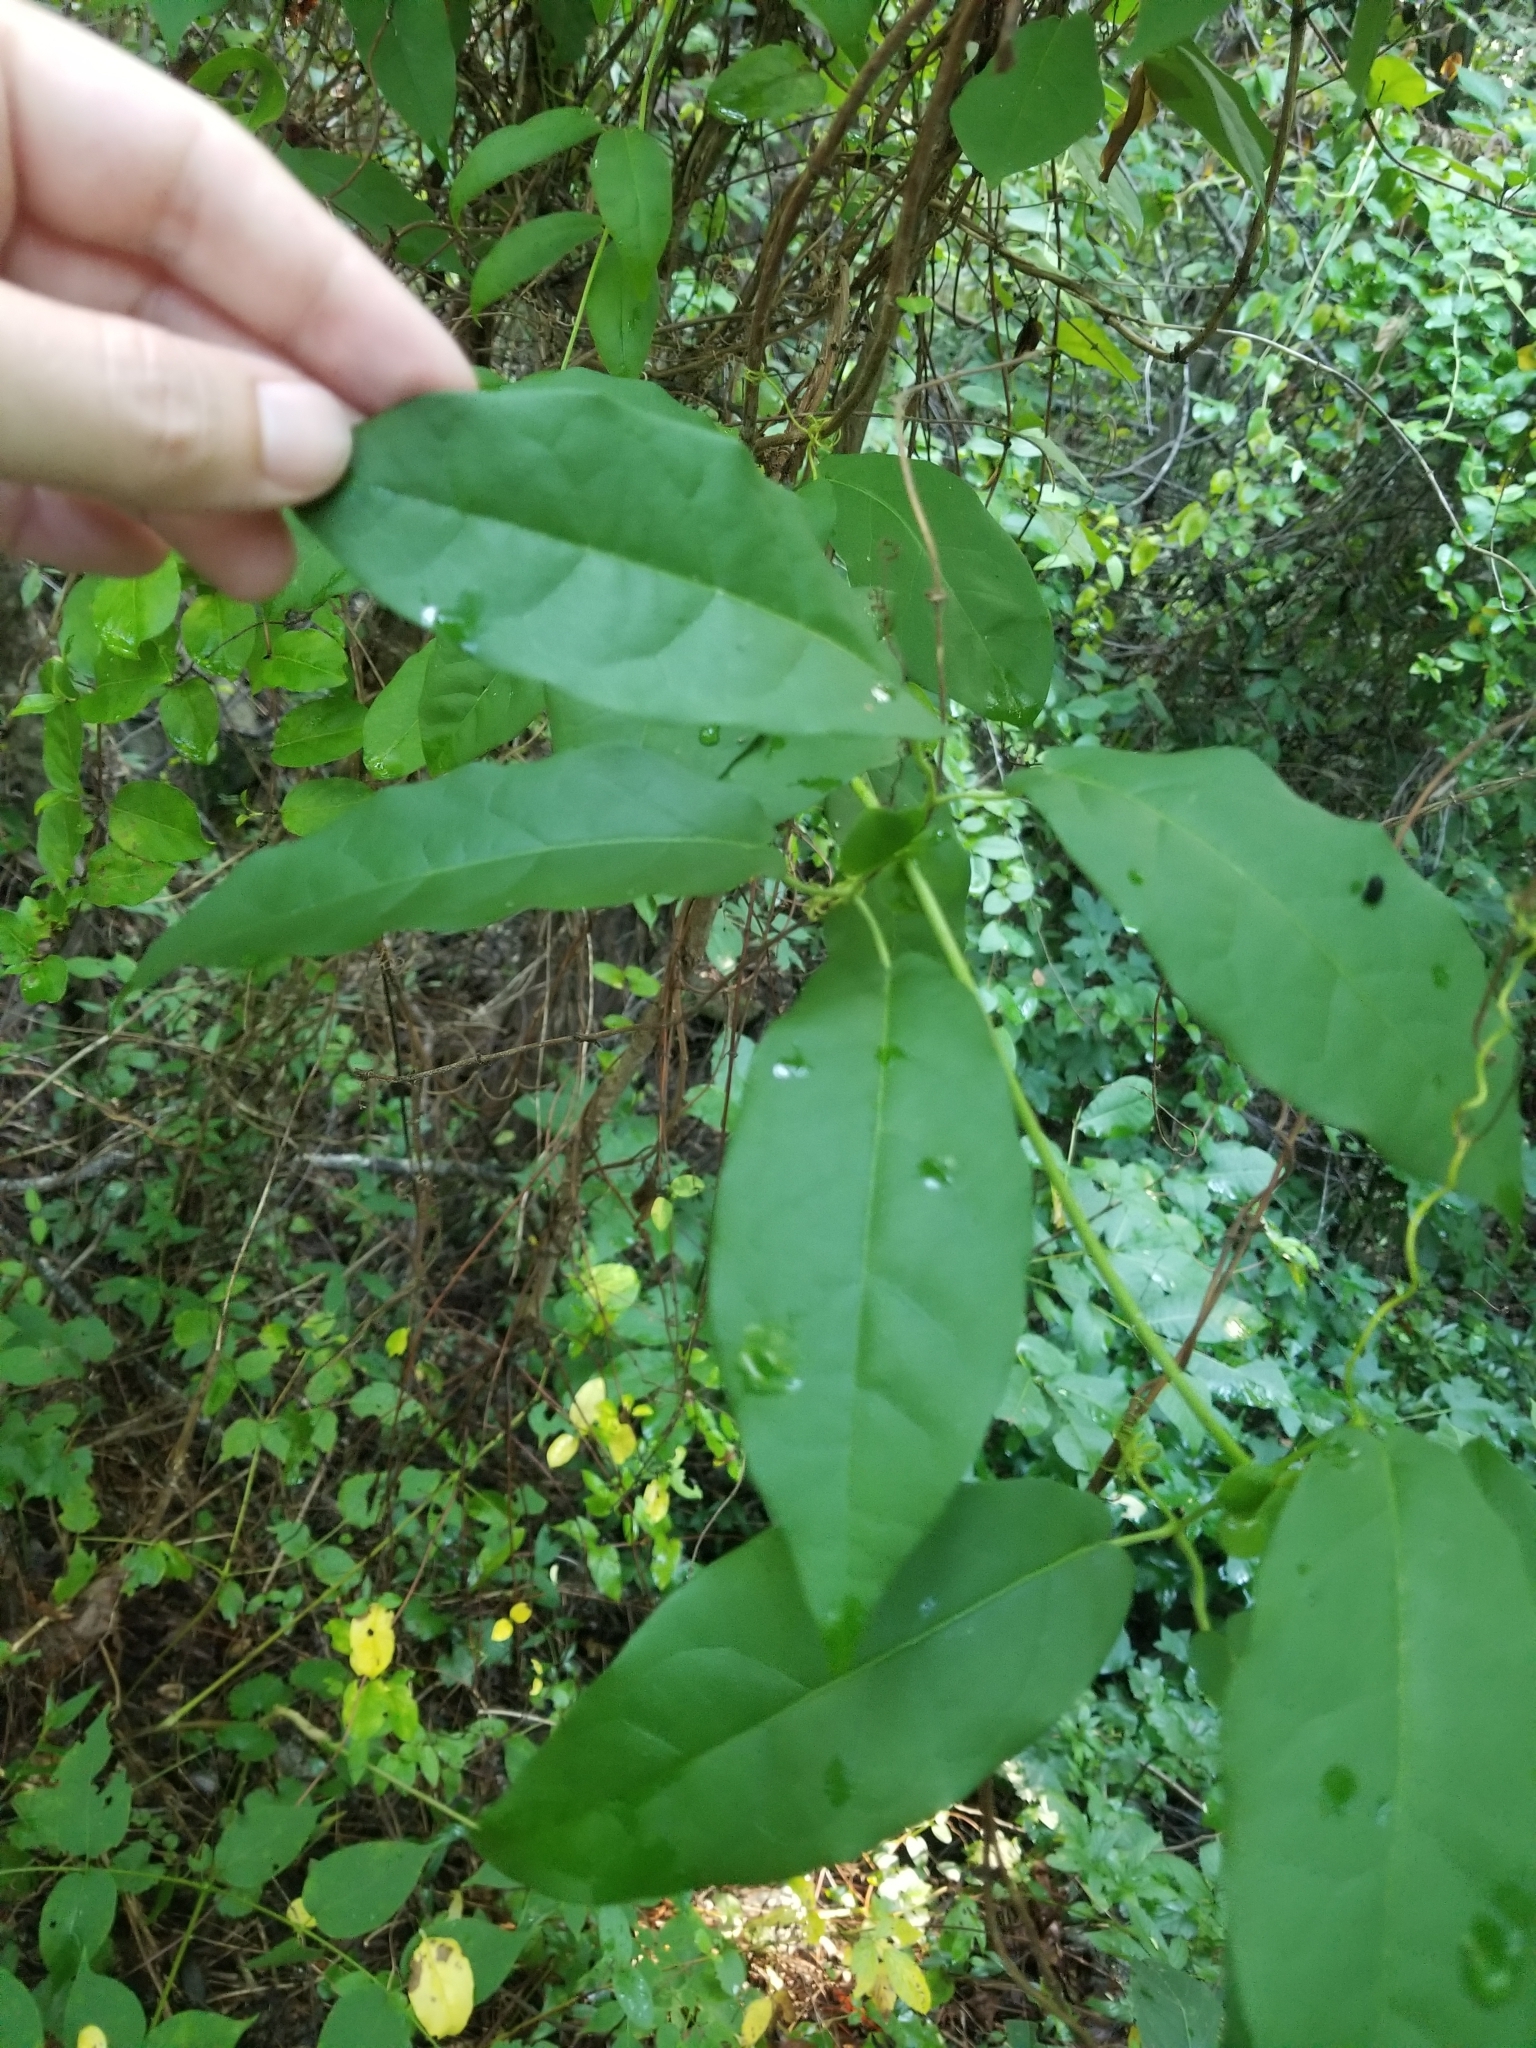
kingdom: Plantae
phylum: Tracheophyta
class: Magnoliopsida
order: Lamiales
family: Bignoniaceae
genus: Bignonia
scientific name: Bignonia capreolata
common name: Crossvine
